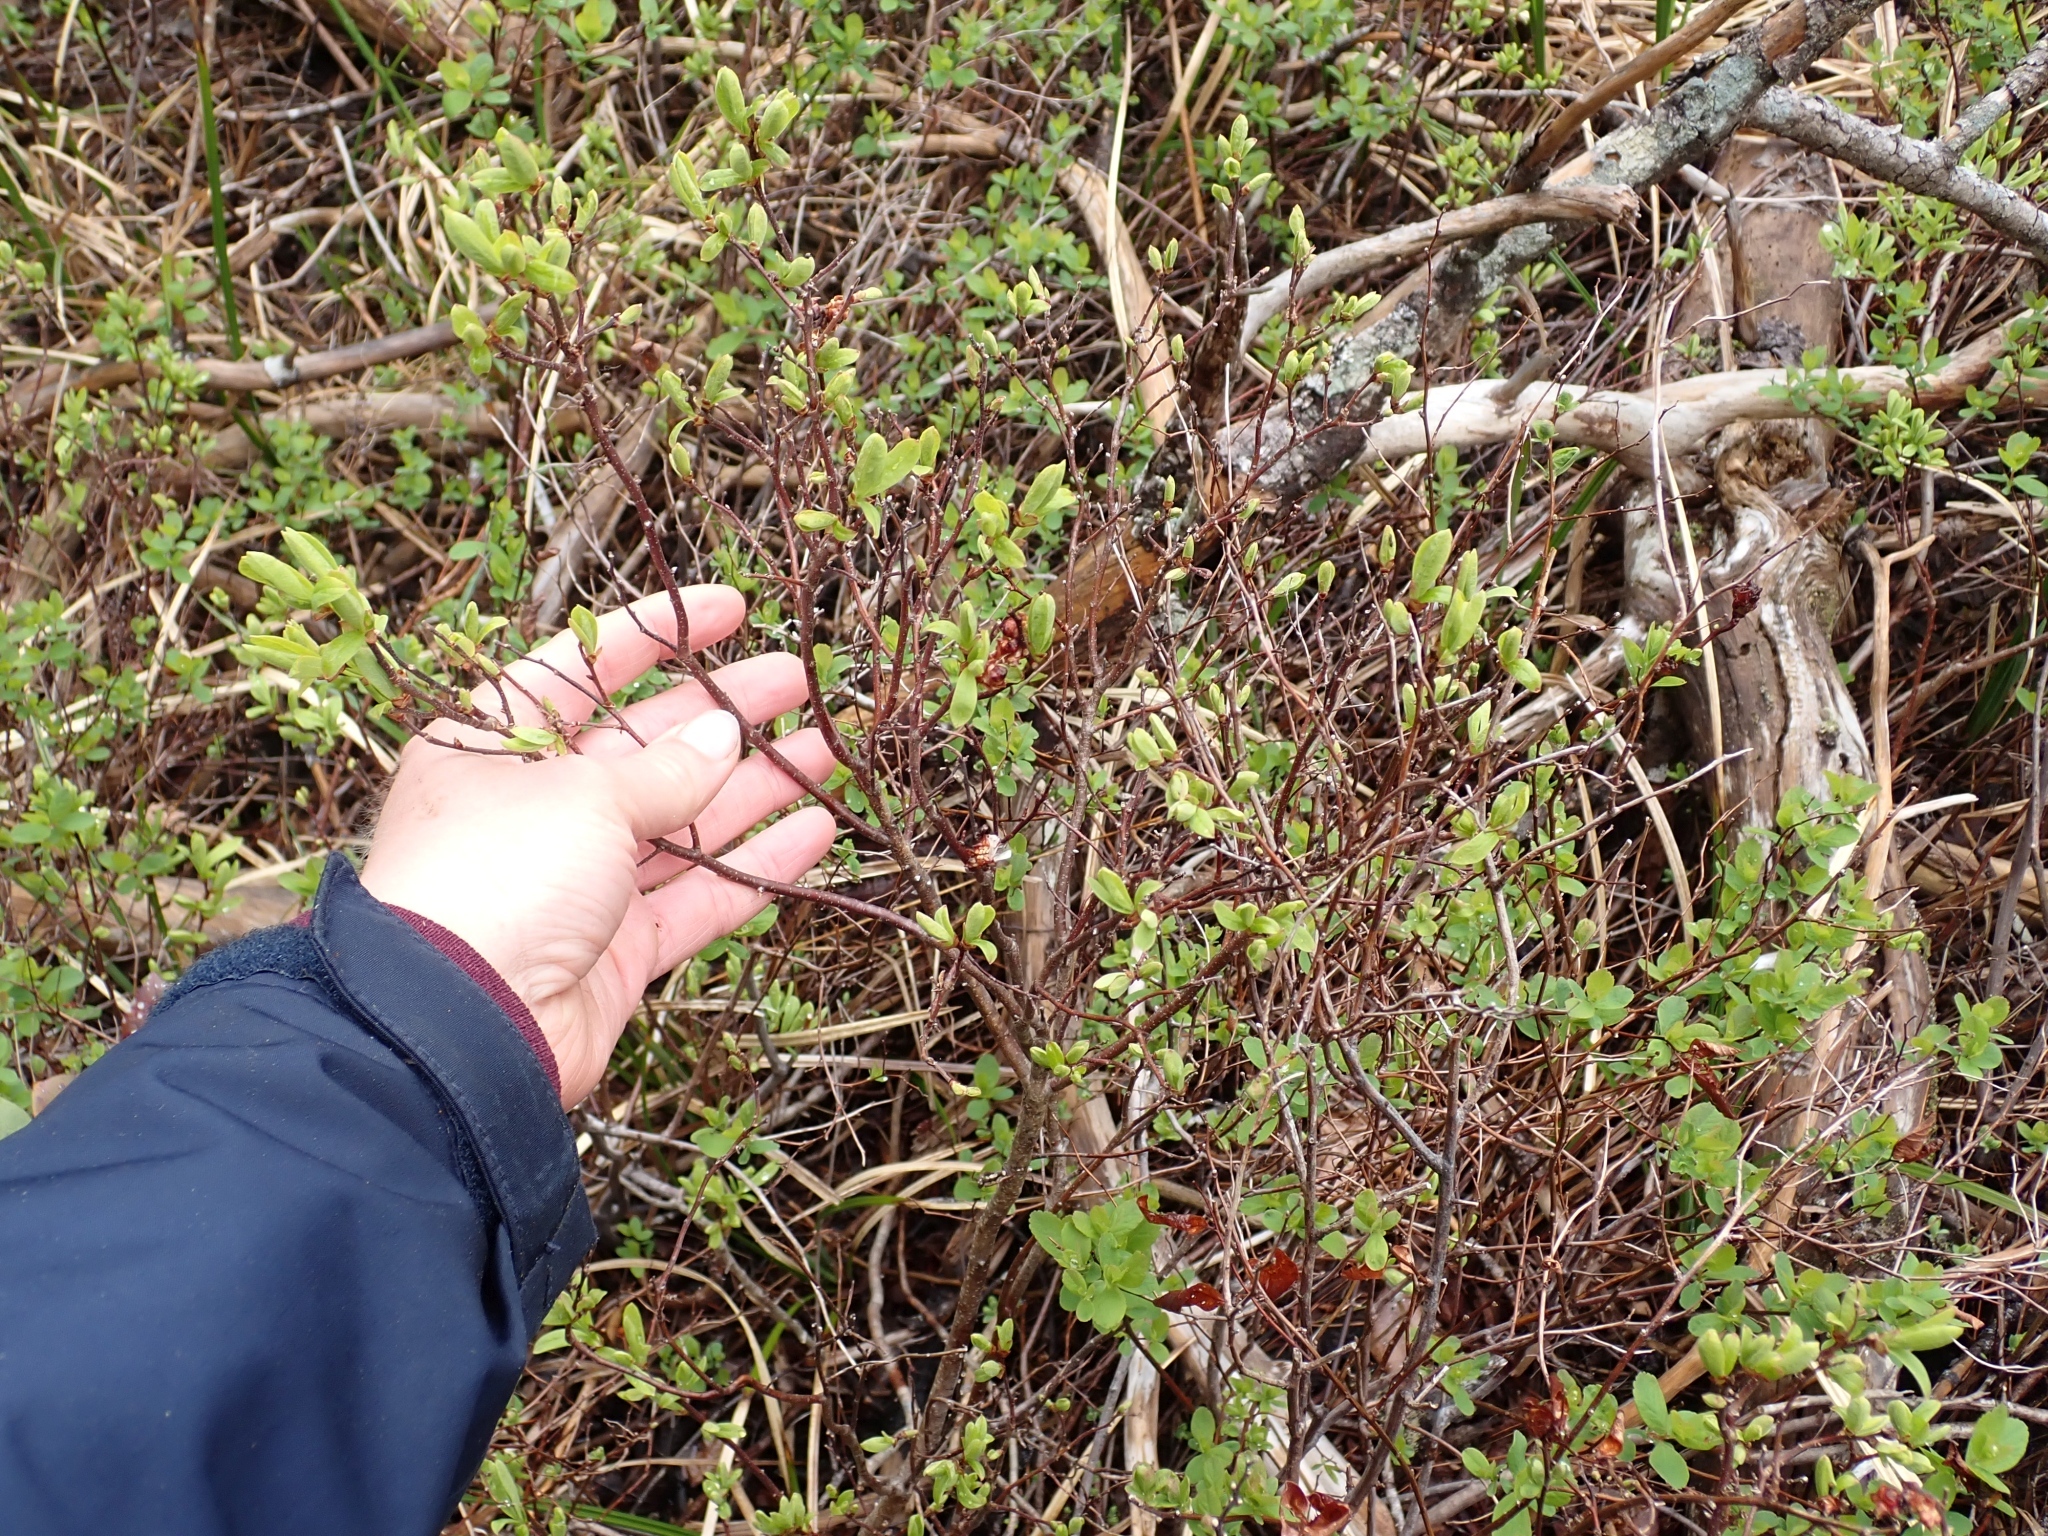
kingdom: Plantae
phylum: Tracheophyta
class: Magnoliopsida
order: Fagales
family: Myricaceae
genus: Myrica
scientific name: Myrica gale
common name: Sweet gale
